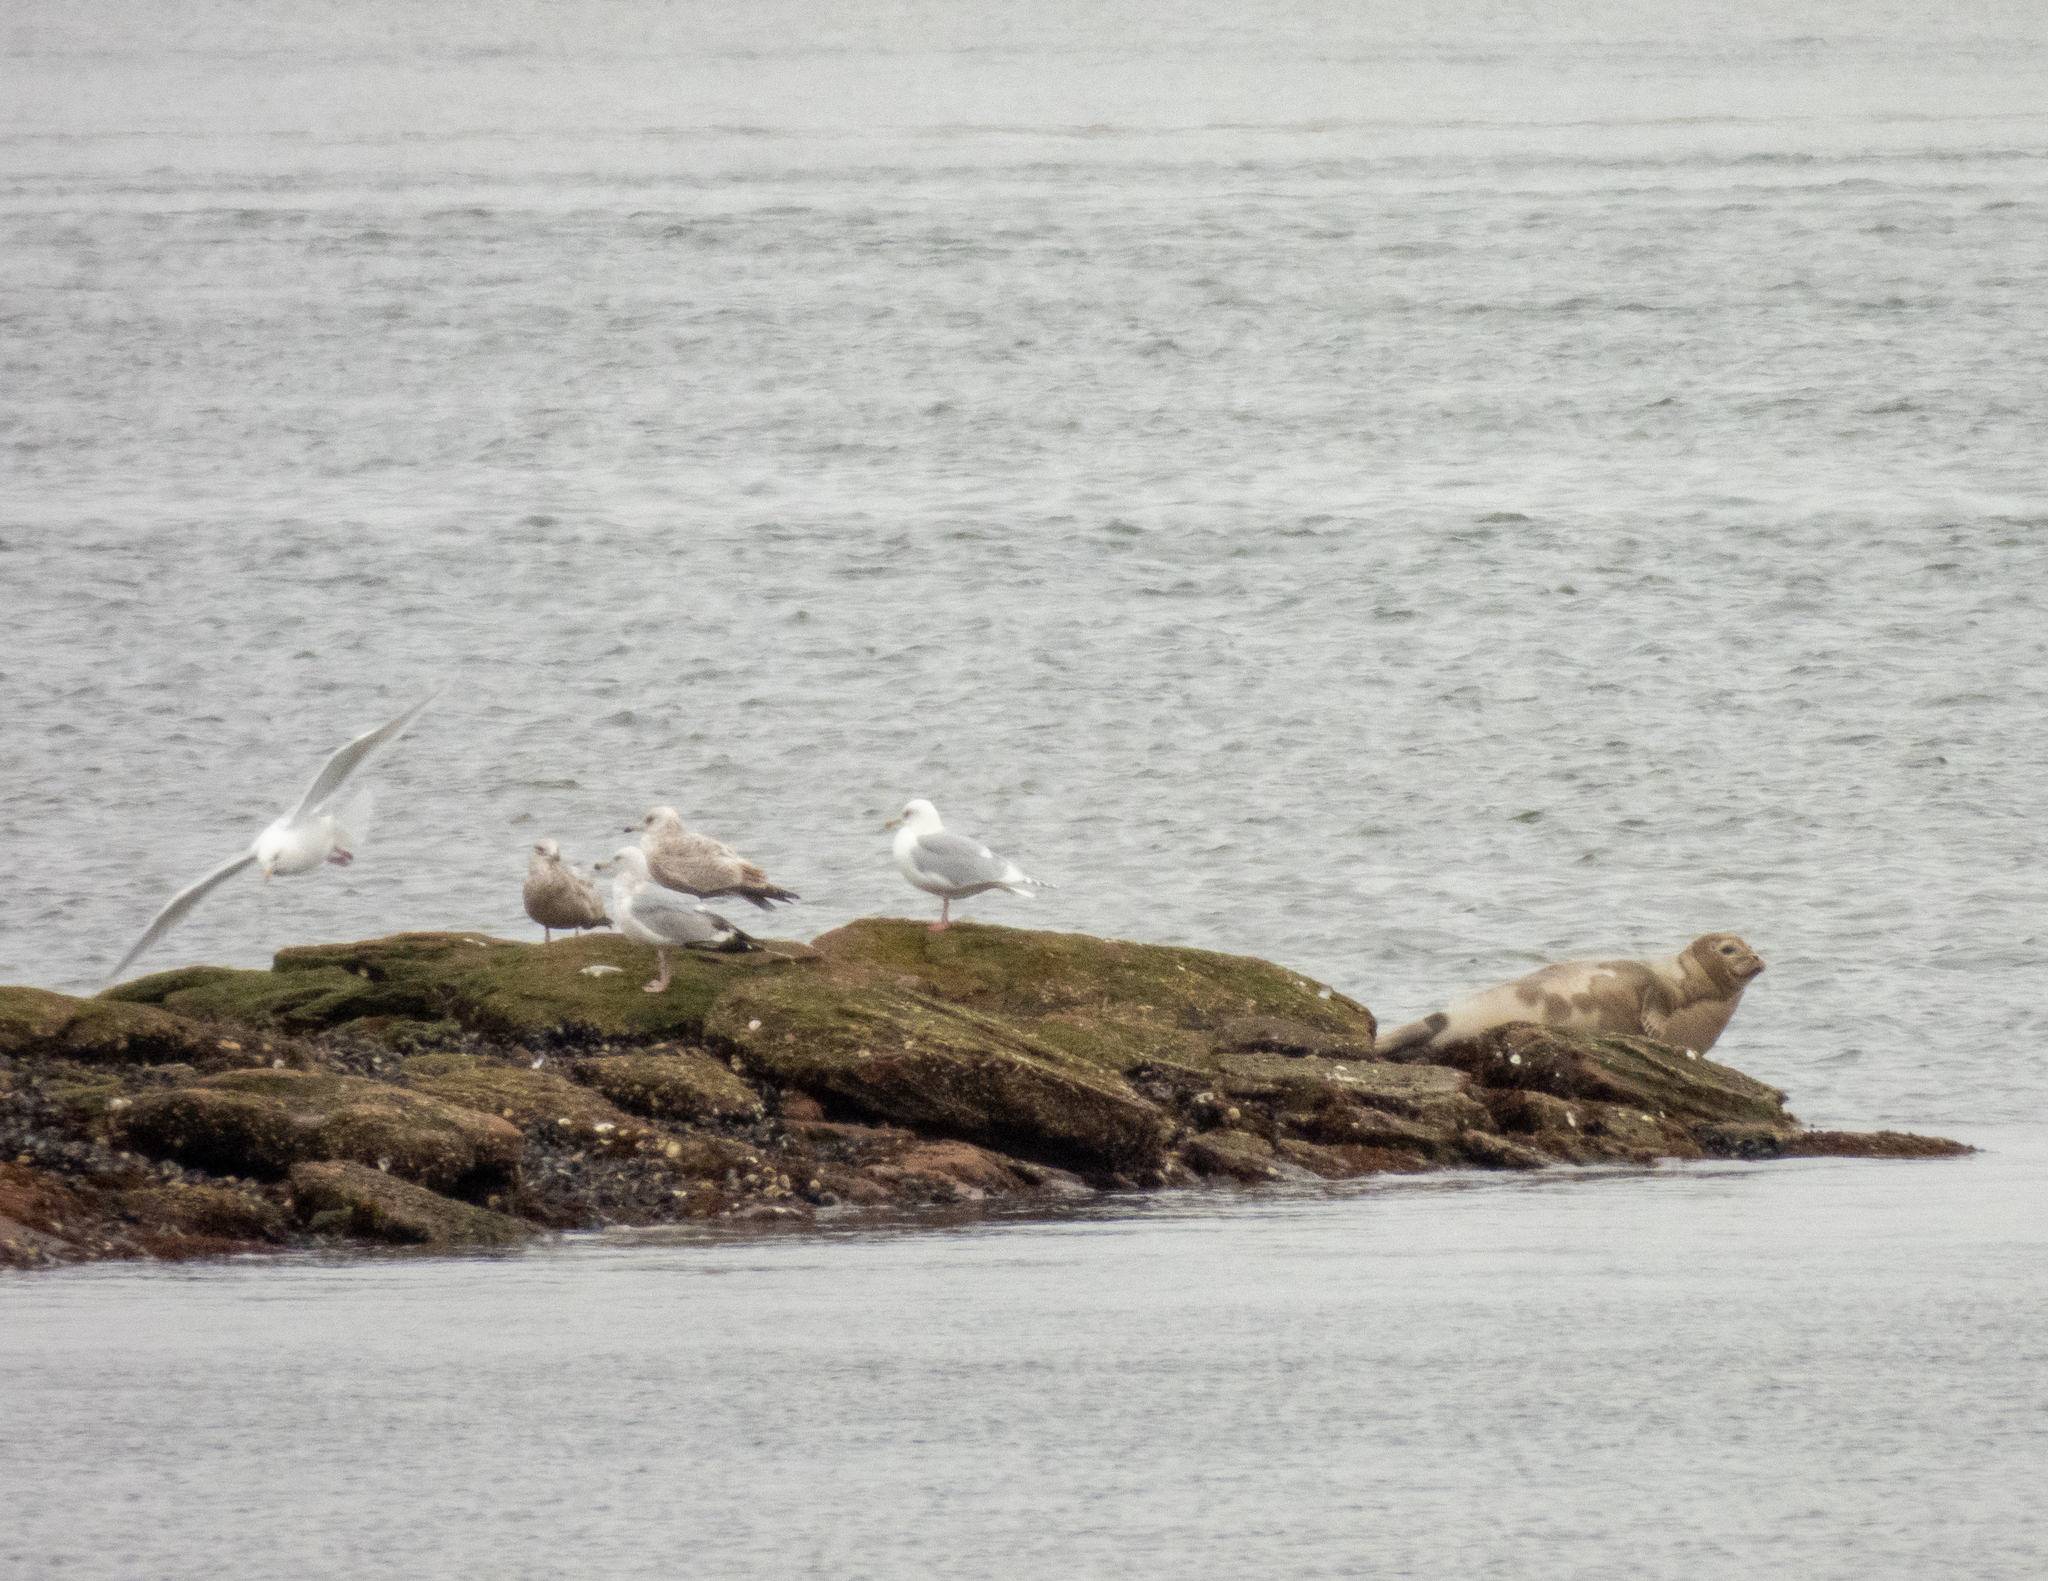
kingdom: Animalia
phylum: Chordata
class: Mammalia
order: Carnivora
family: Phocidae
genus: Phoca
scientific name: Phoca vitulina
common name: Harbor seal
